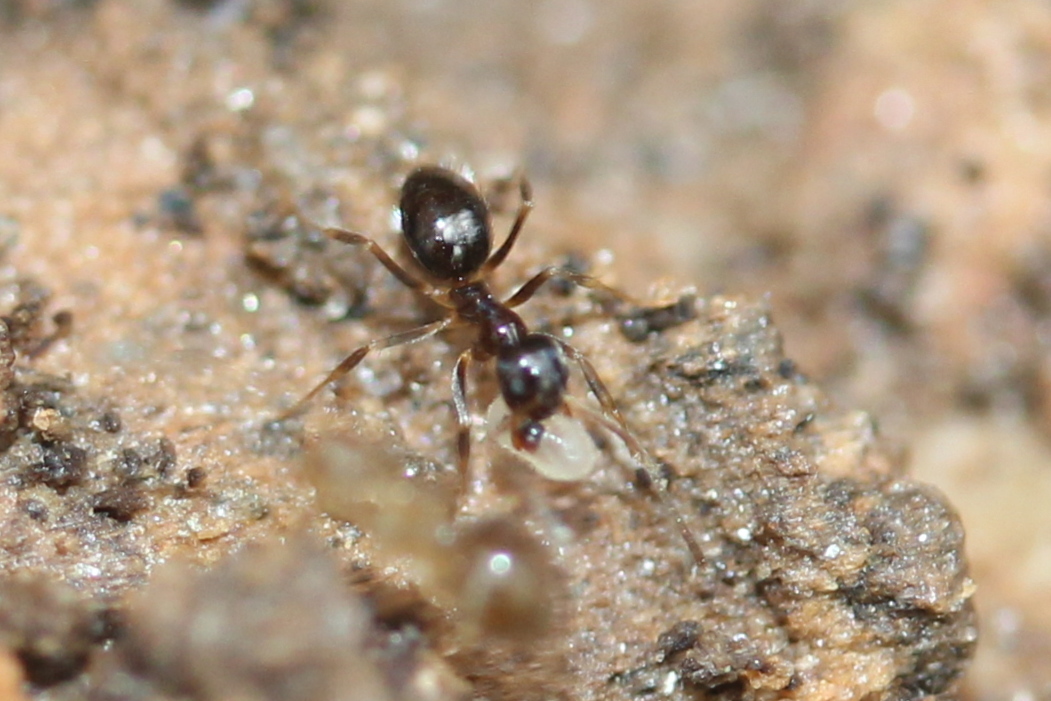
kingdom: Animalia
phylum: Arthropoda
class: Insecta
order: Hymenoptera
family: Formicidae
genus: Nylanderia
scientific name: Nylanderia faisonensis
